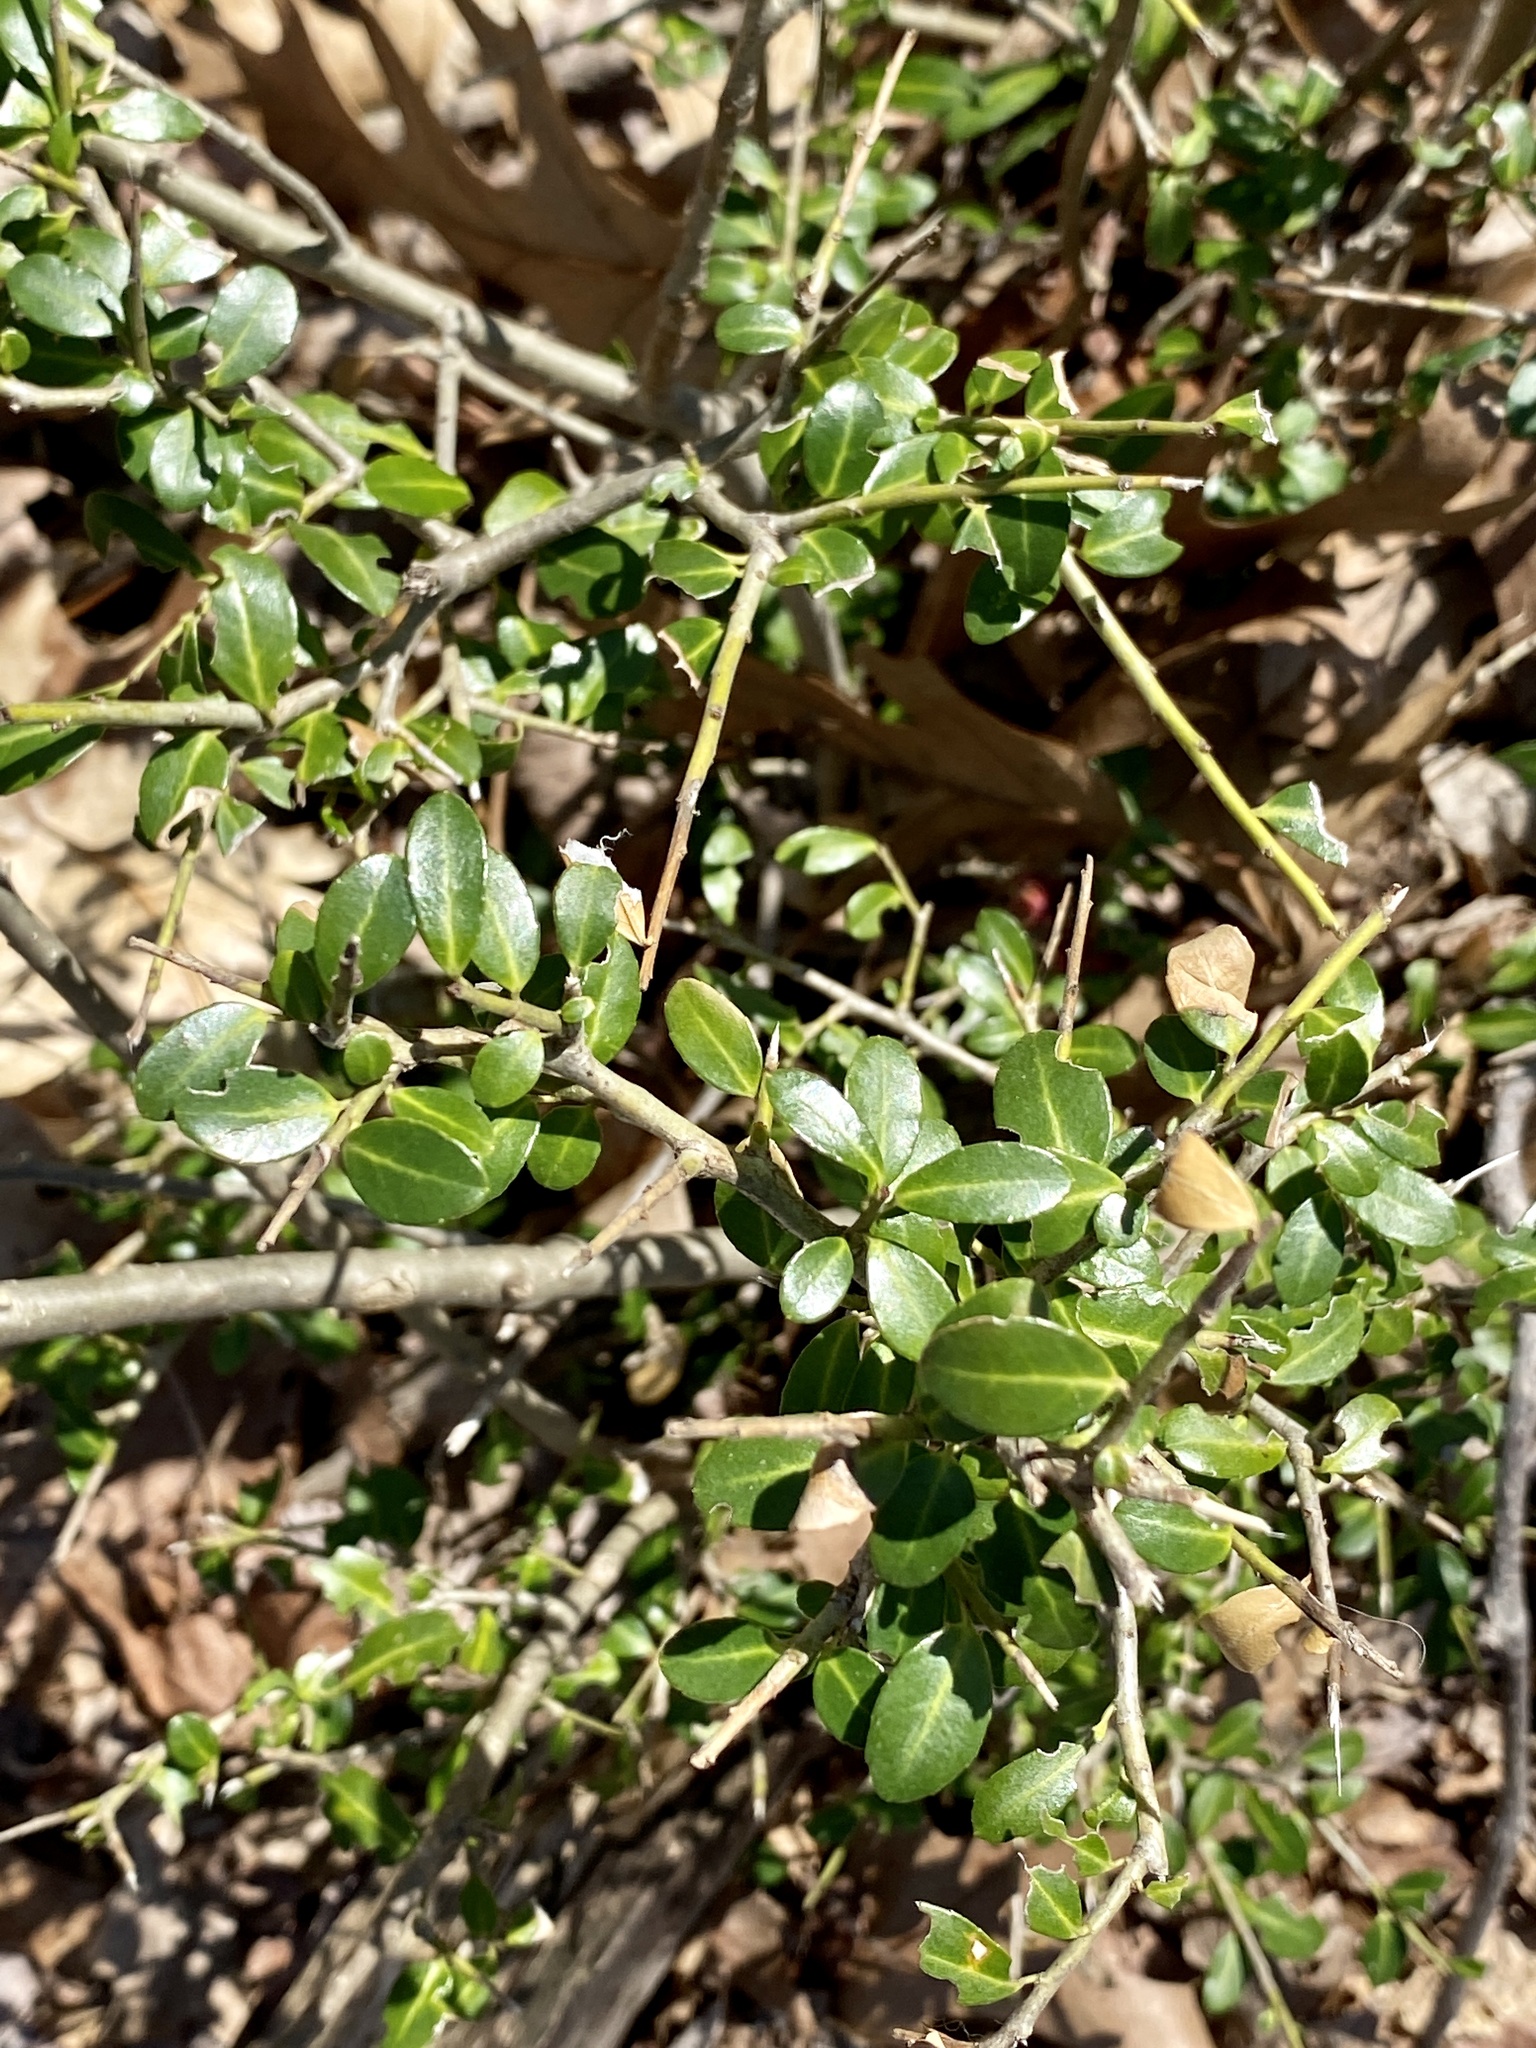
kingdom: Plantae
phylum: Tracheophyta
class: Magnoliopsida
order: Aquifoliales
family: Aquifoliaceae
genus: Ilex
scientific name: Ilex crenata
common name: Japanese holly
